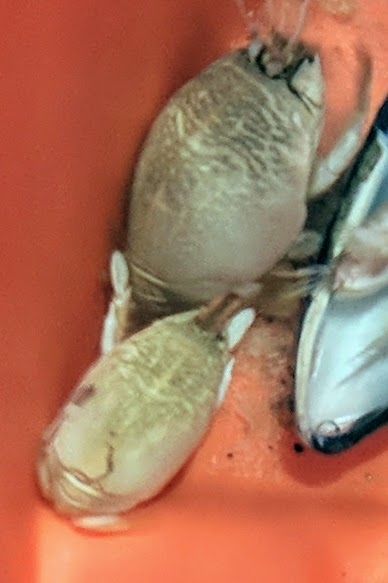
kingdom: Animalia
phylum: Arthropoda
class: Malacostraca
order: Decapoda
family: Hippidae
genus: Emerita
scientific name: Emerita talpoida
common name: Atlantic sand crab
